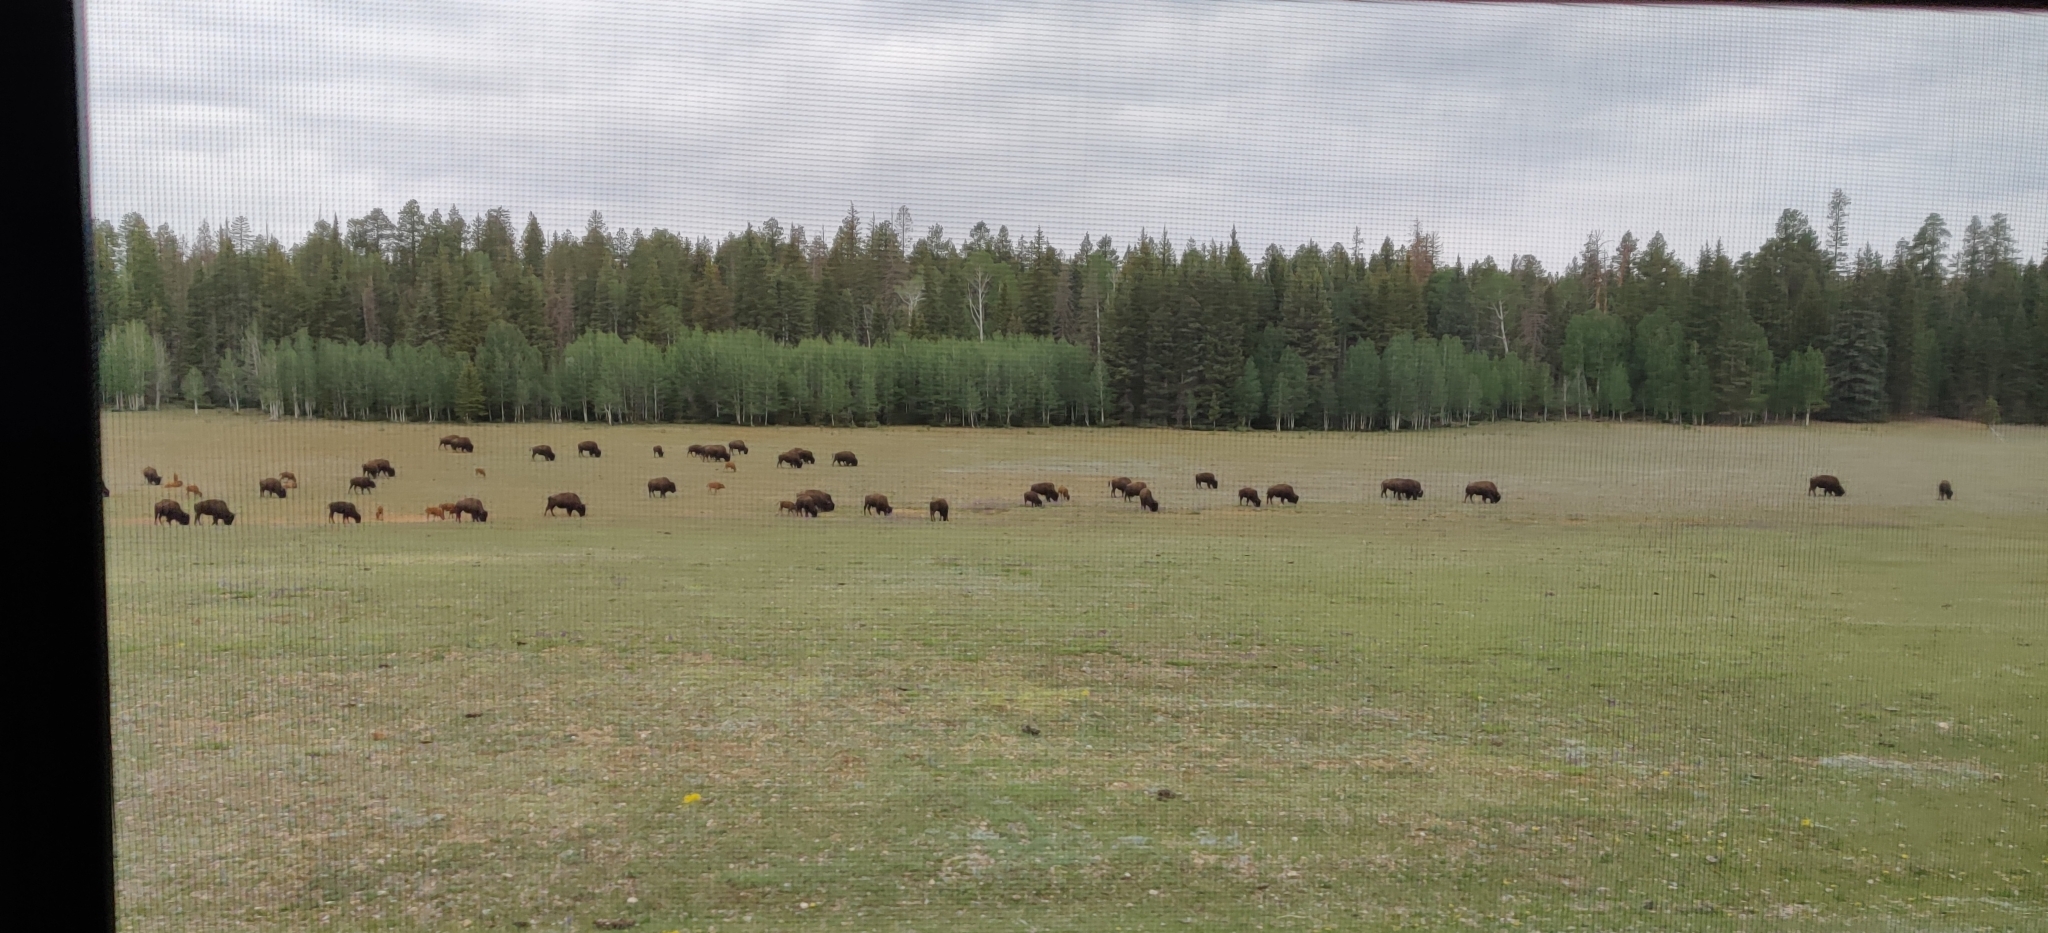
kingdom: Animalia
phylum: Chordata
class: Mammalia
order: Artiodactyla
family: Bovidae
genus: Bison
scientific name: Bison bison
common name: American bison
